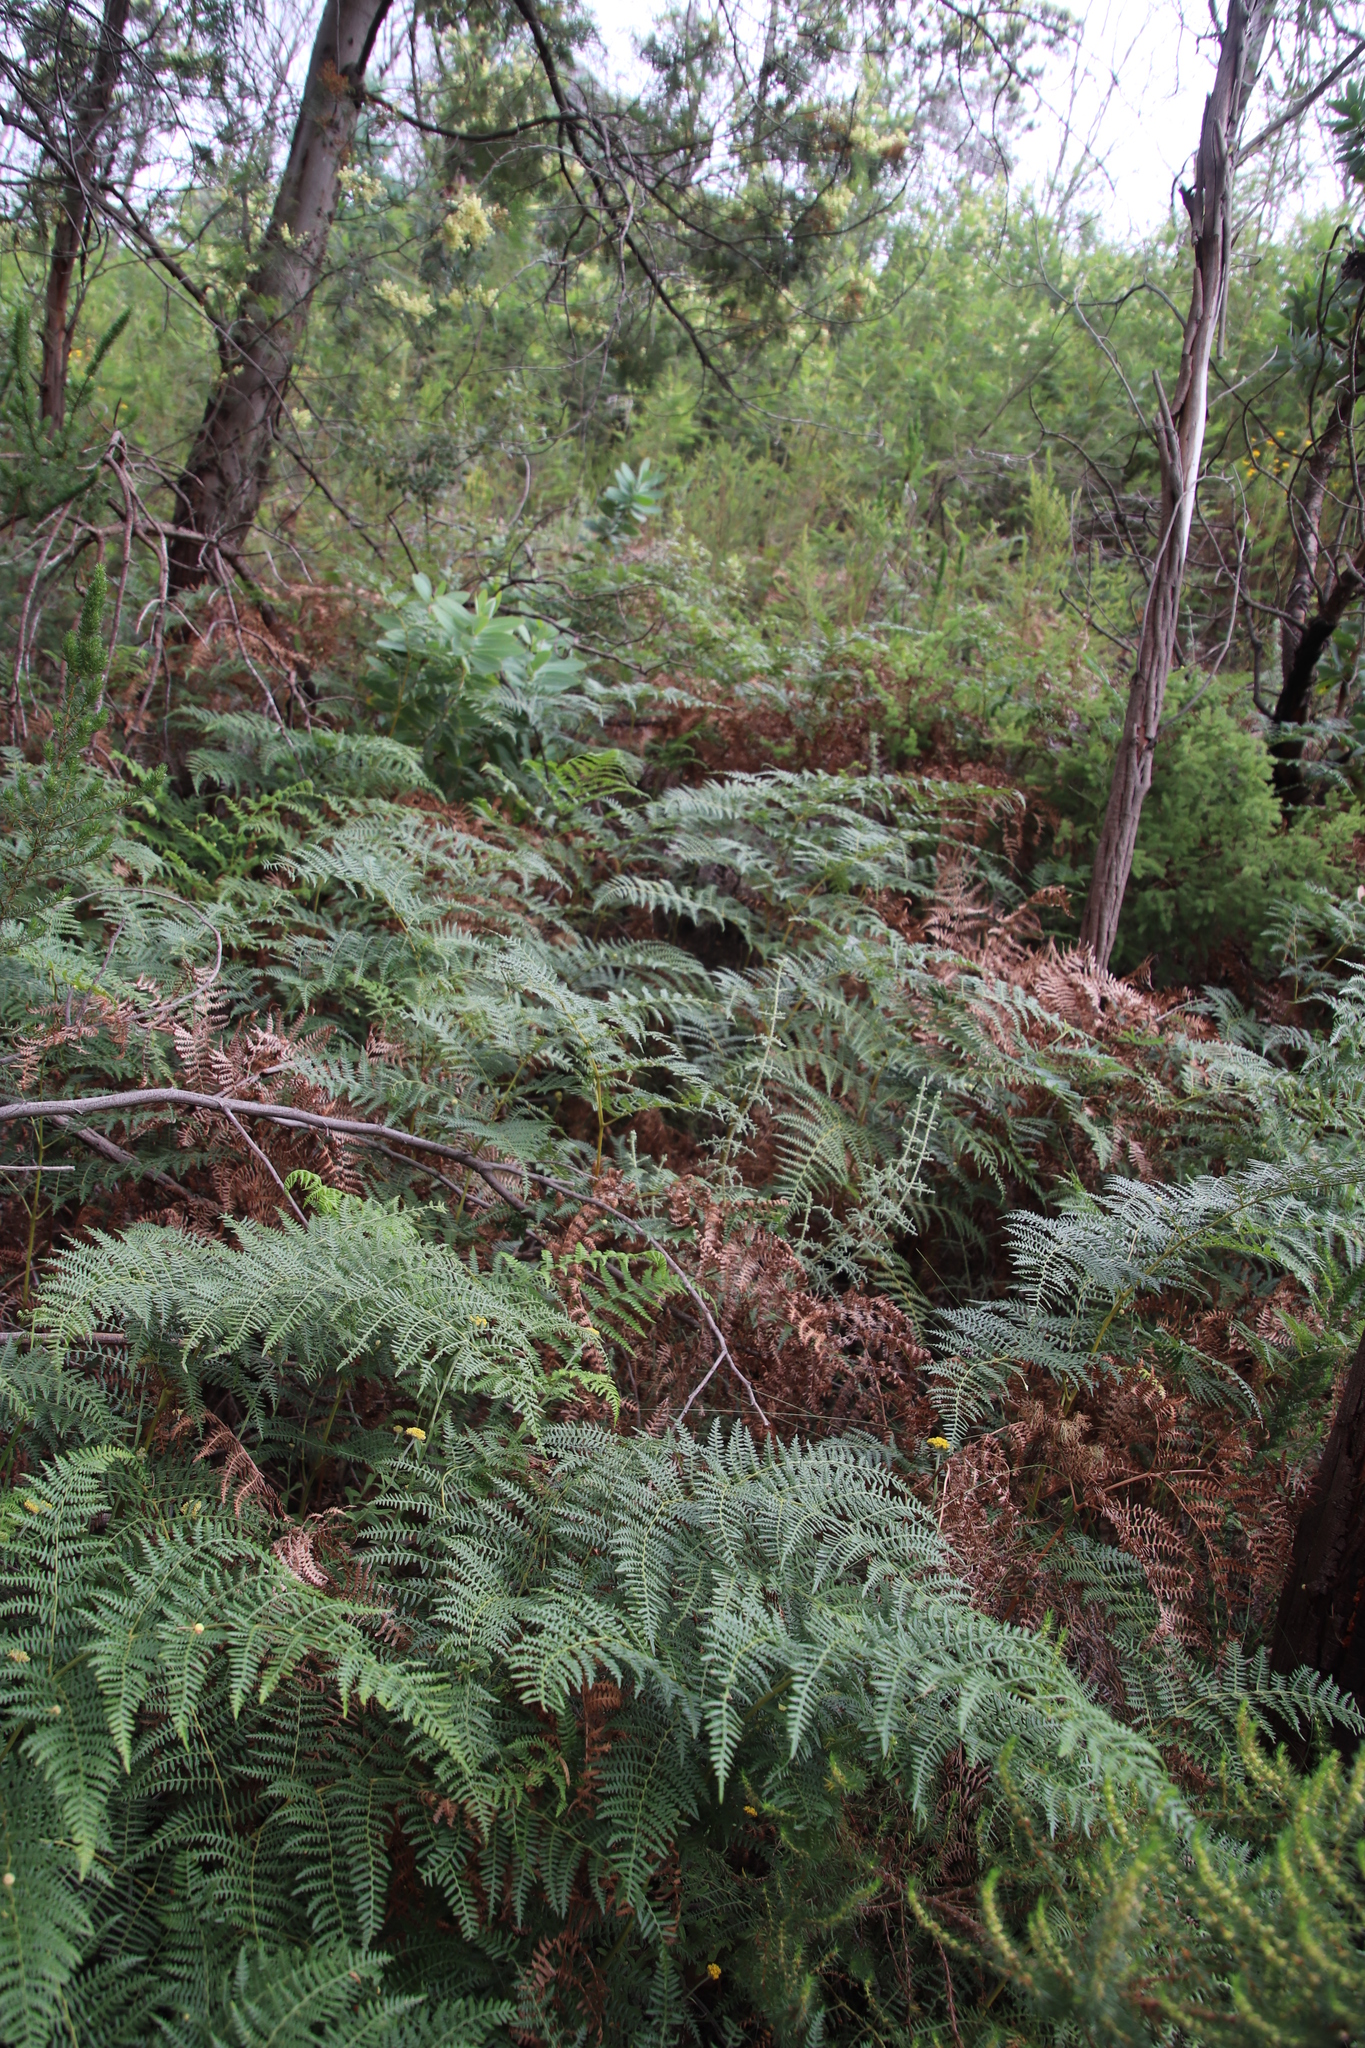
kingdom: Plantae
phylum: Tracheophyta
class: Polypodiopsida
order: Polypodiales
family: Dennstaedtiaceae
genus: Pteridium
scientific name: Pteridium aquilinum
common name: Bracken
